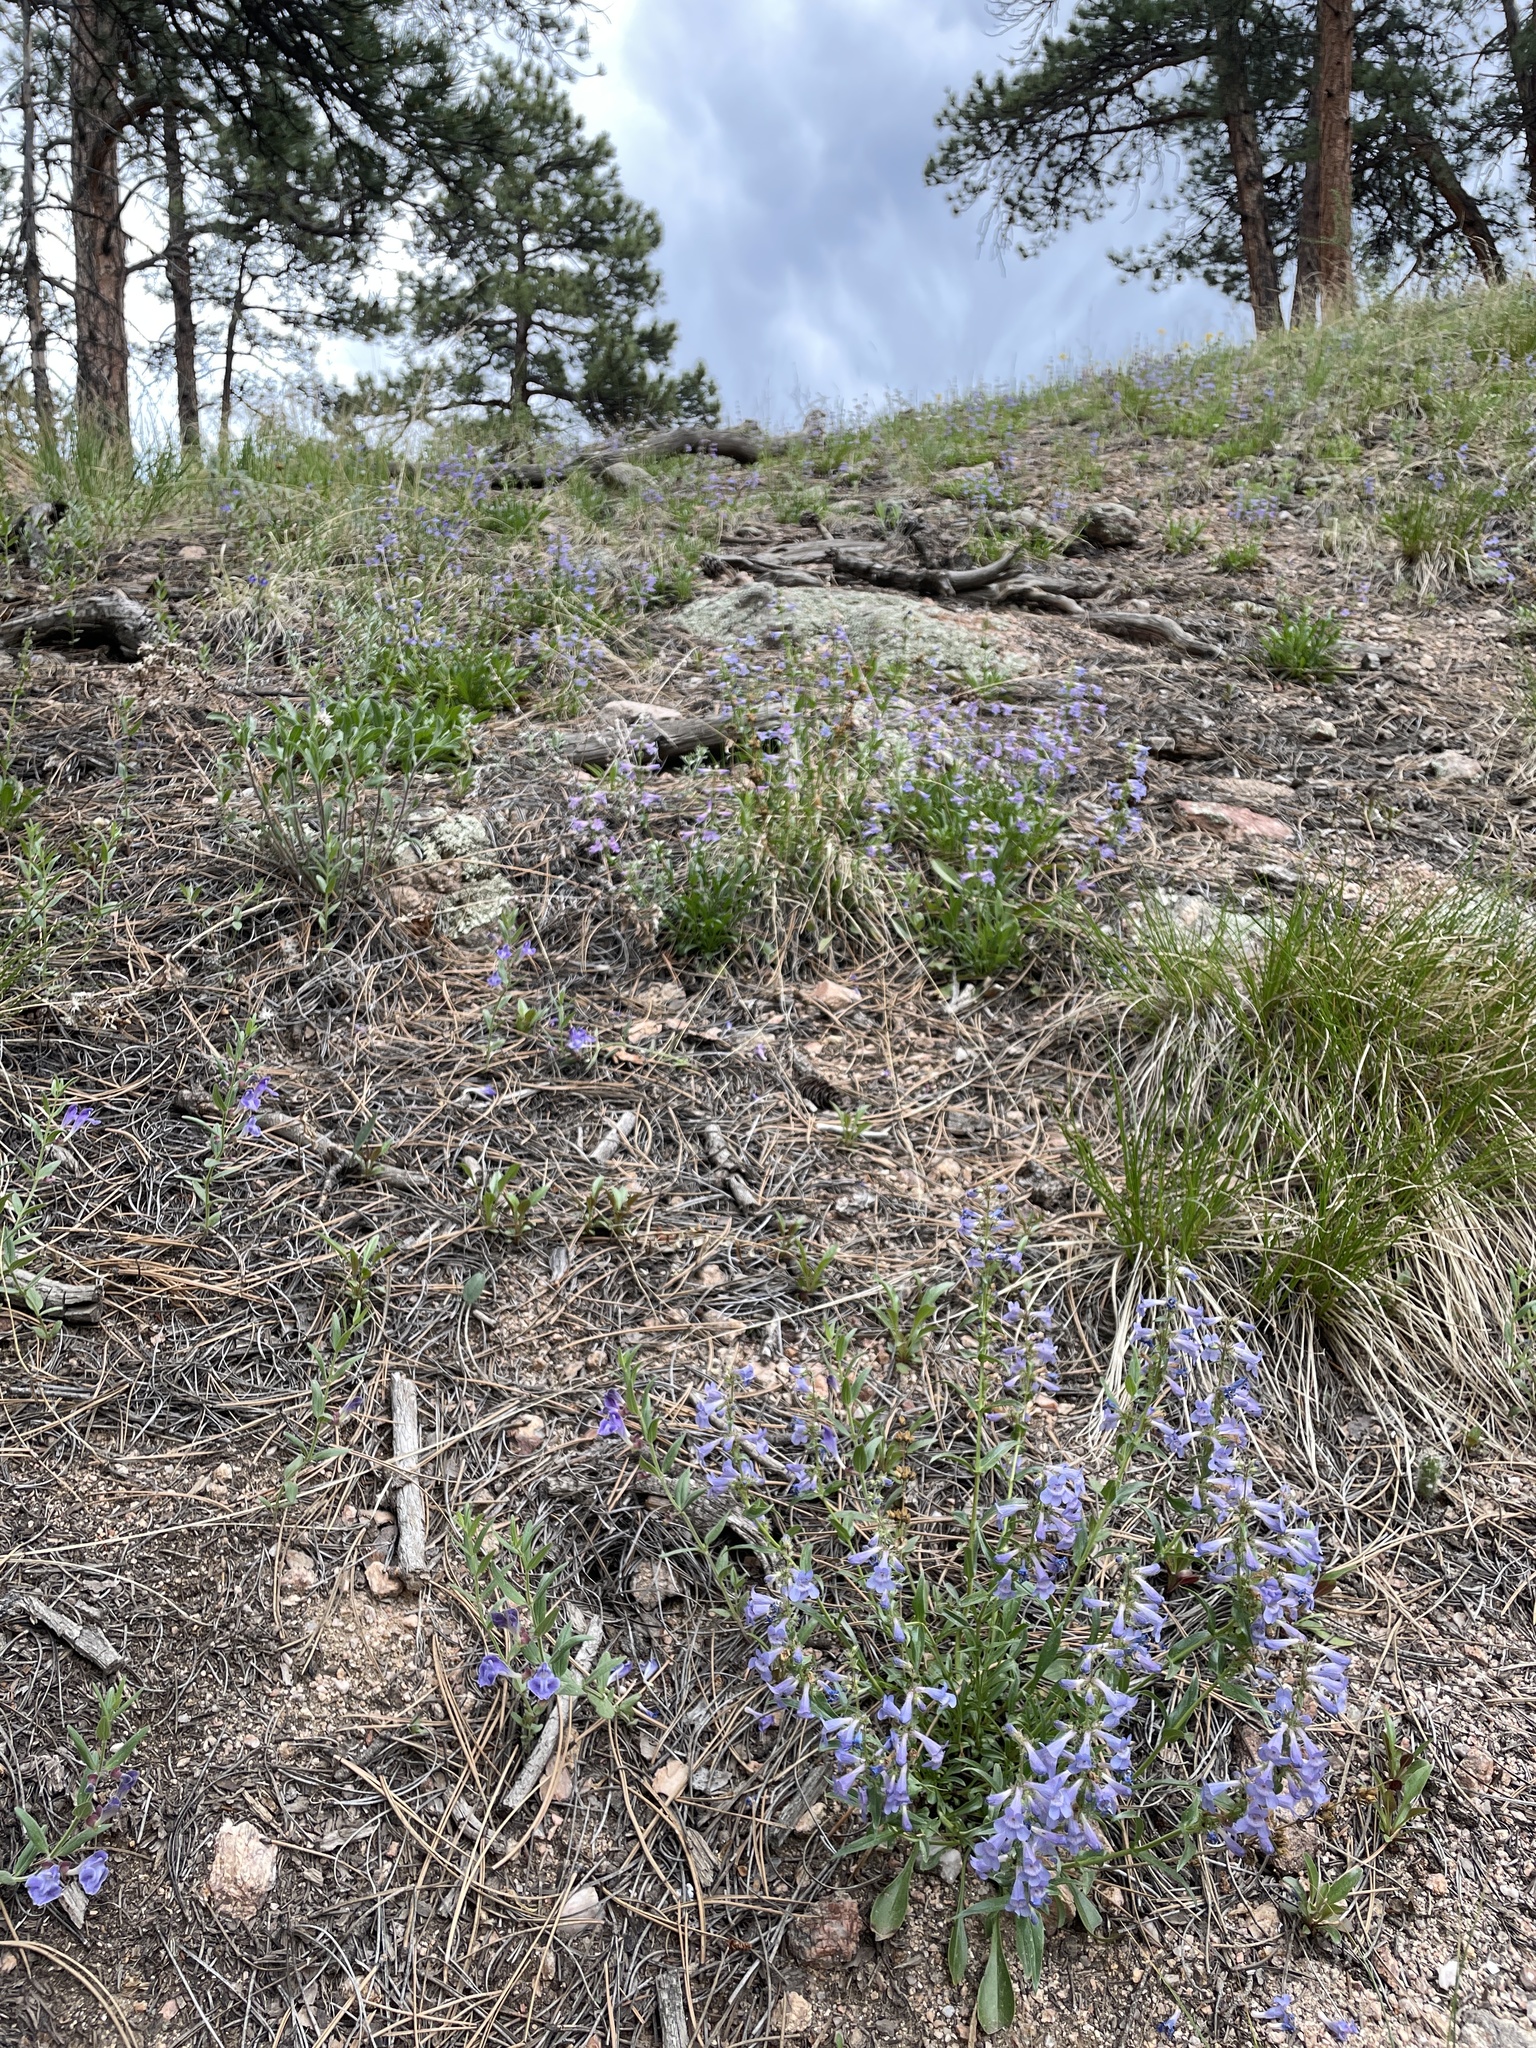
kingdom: Plantae
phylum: Tracheophyta
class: Magnoliopsida
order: Lamiales
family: Plantaginaceae
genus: Penstemon
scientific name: Penstemon virens
